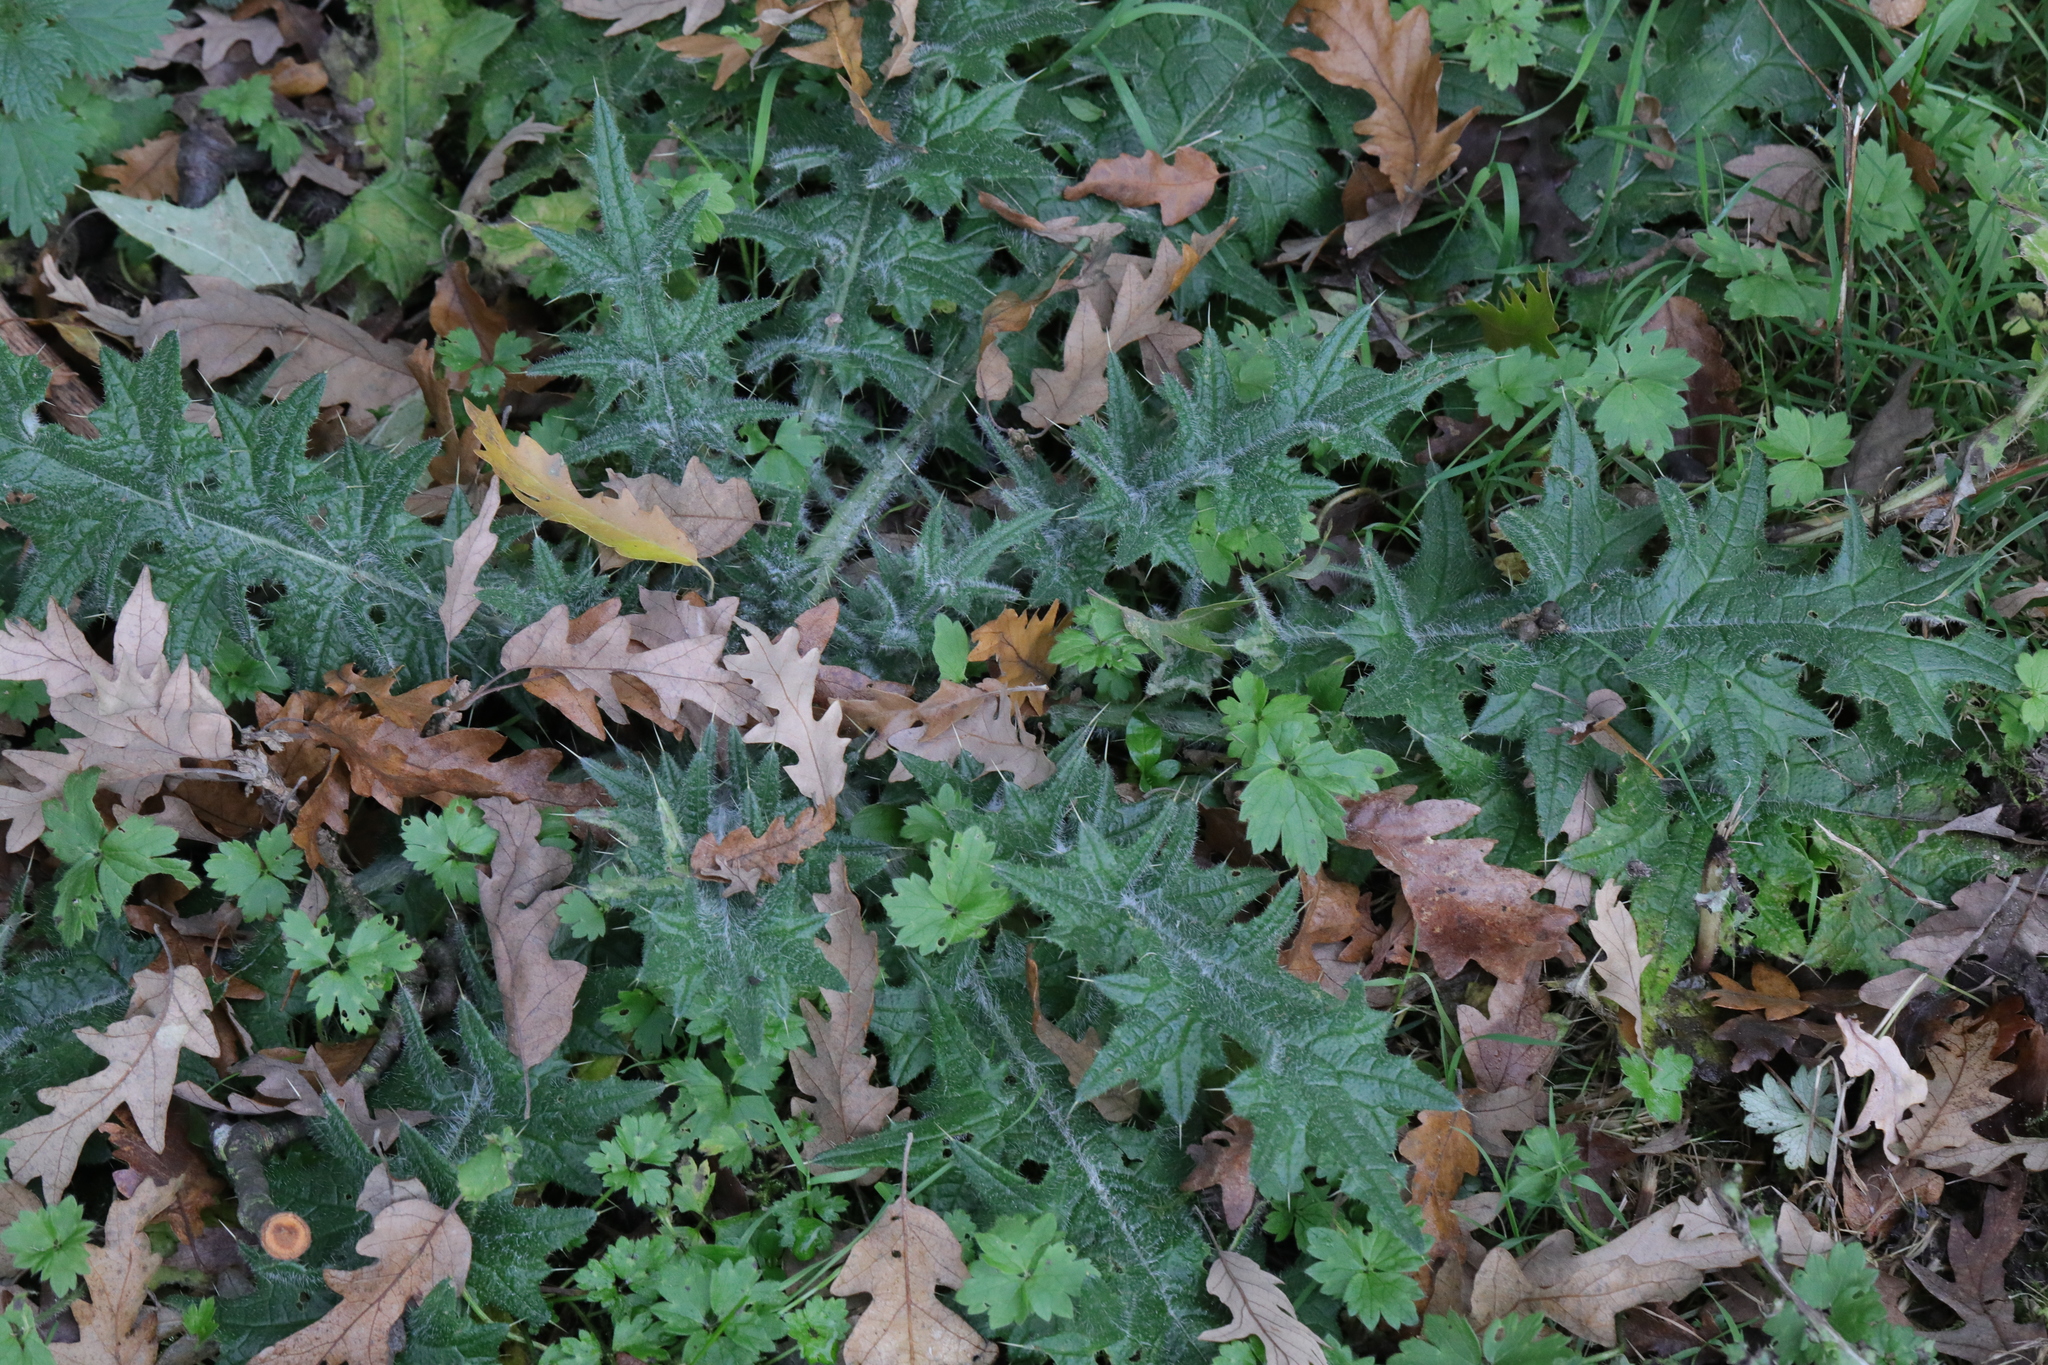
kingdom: Plantae
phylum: Tracheophyta
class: Magnoliopsida
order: Asterales
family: Asteraceae
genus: Cirsium
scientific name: Cirsium vulgare
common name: Bull thistle
